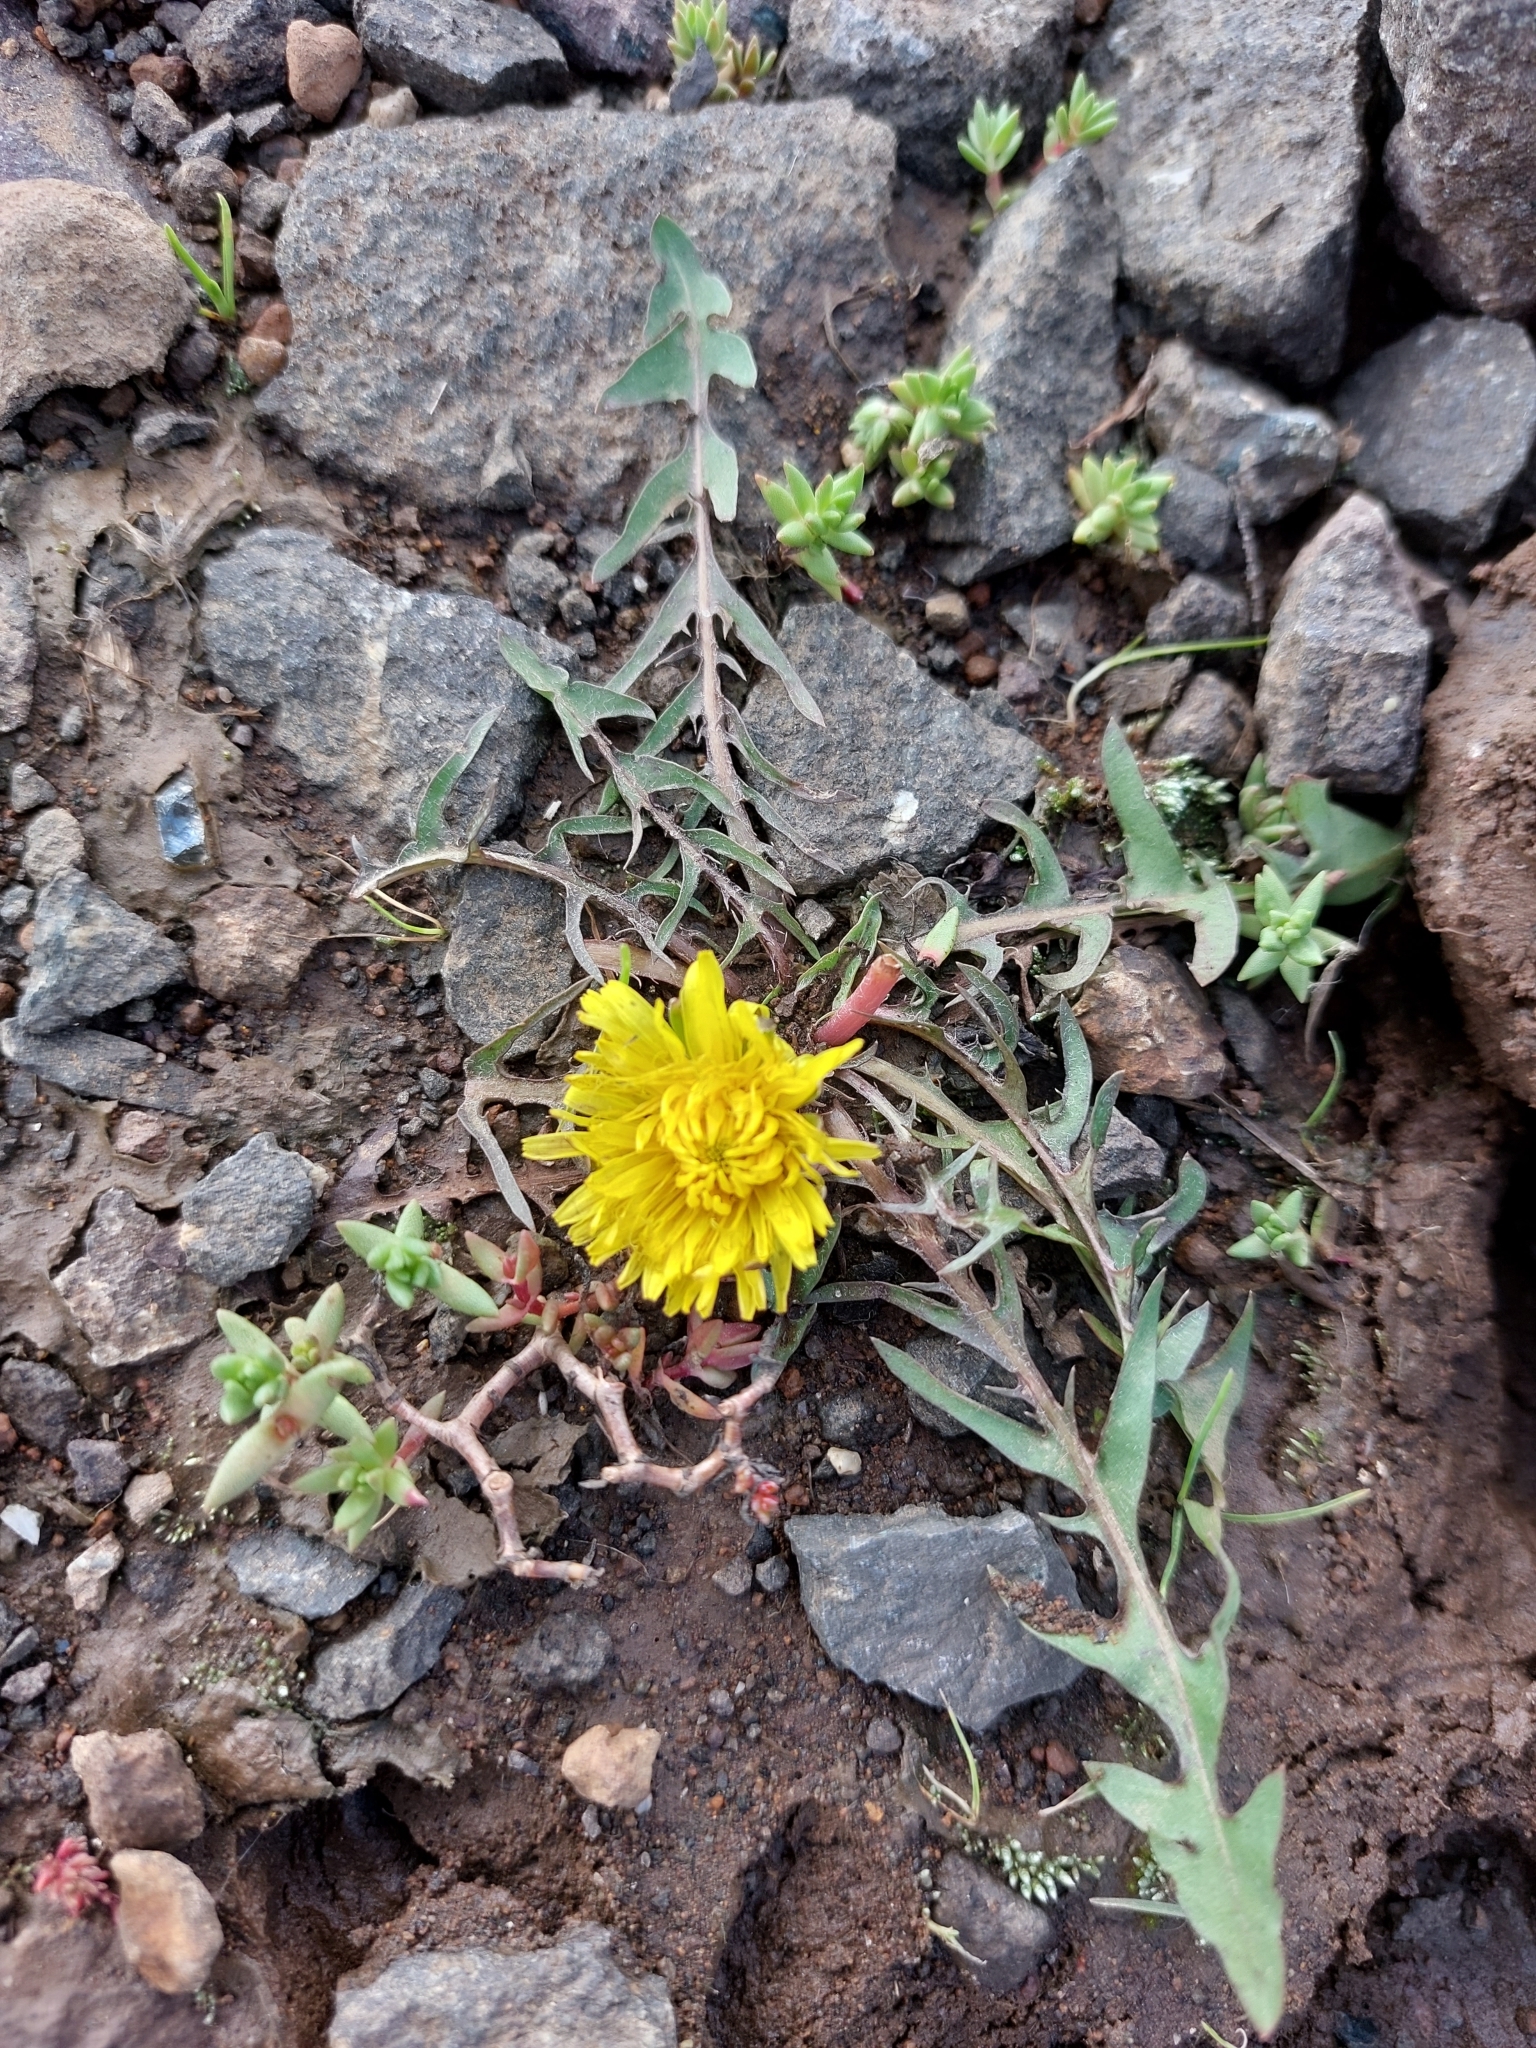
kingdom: Plantae
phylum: Tracheophyta
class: Magnoliopsida
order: Asterales
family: Asteraceae
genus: Taraxacum
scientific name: Taraxacum officinale
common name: Common dandelion
